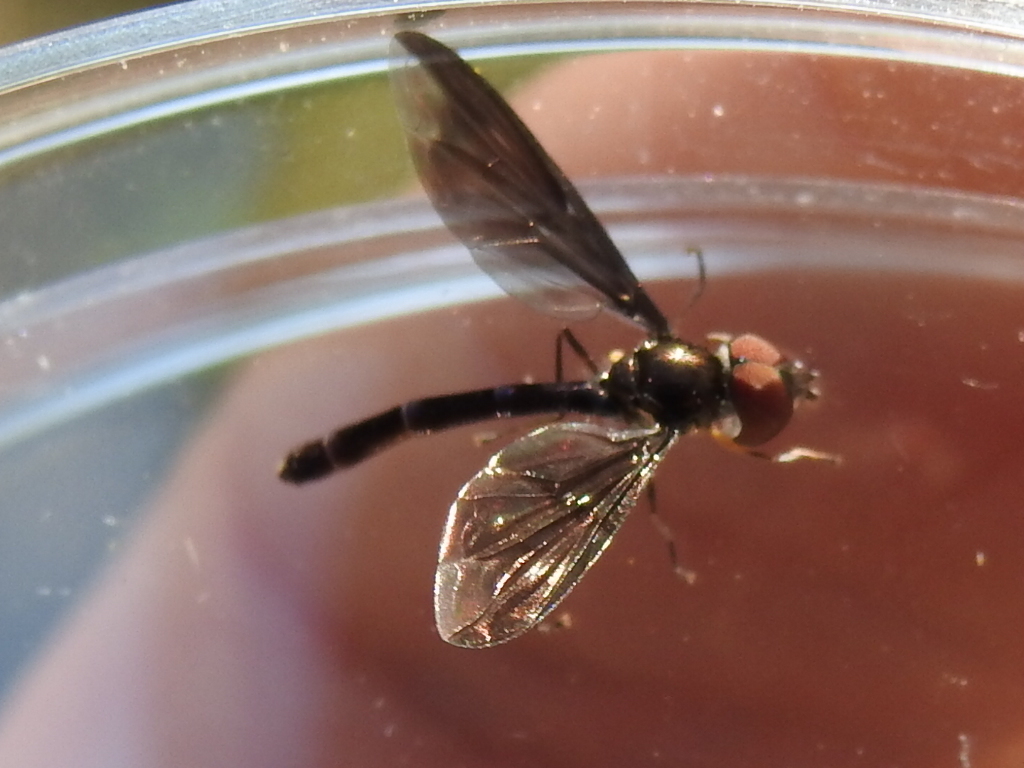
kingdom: Animalia
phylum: Arthropoda
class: Insecta
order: Diptera
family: Syrphidae
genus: Ocyptamus
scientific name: Ocyptamus fuscipennis
